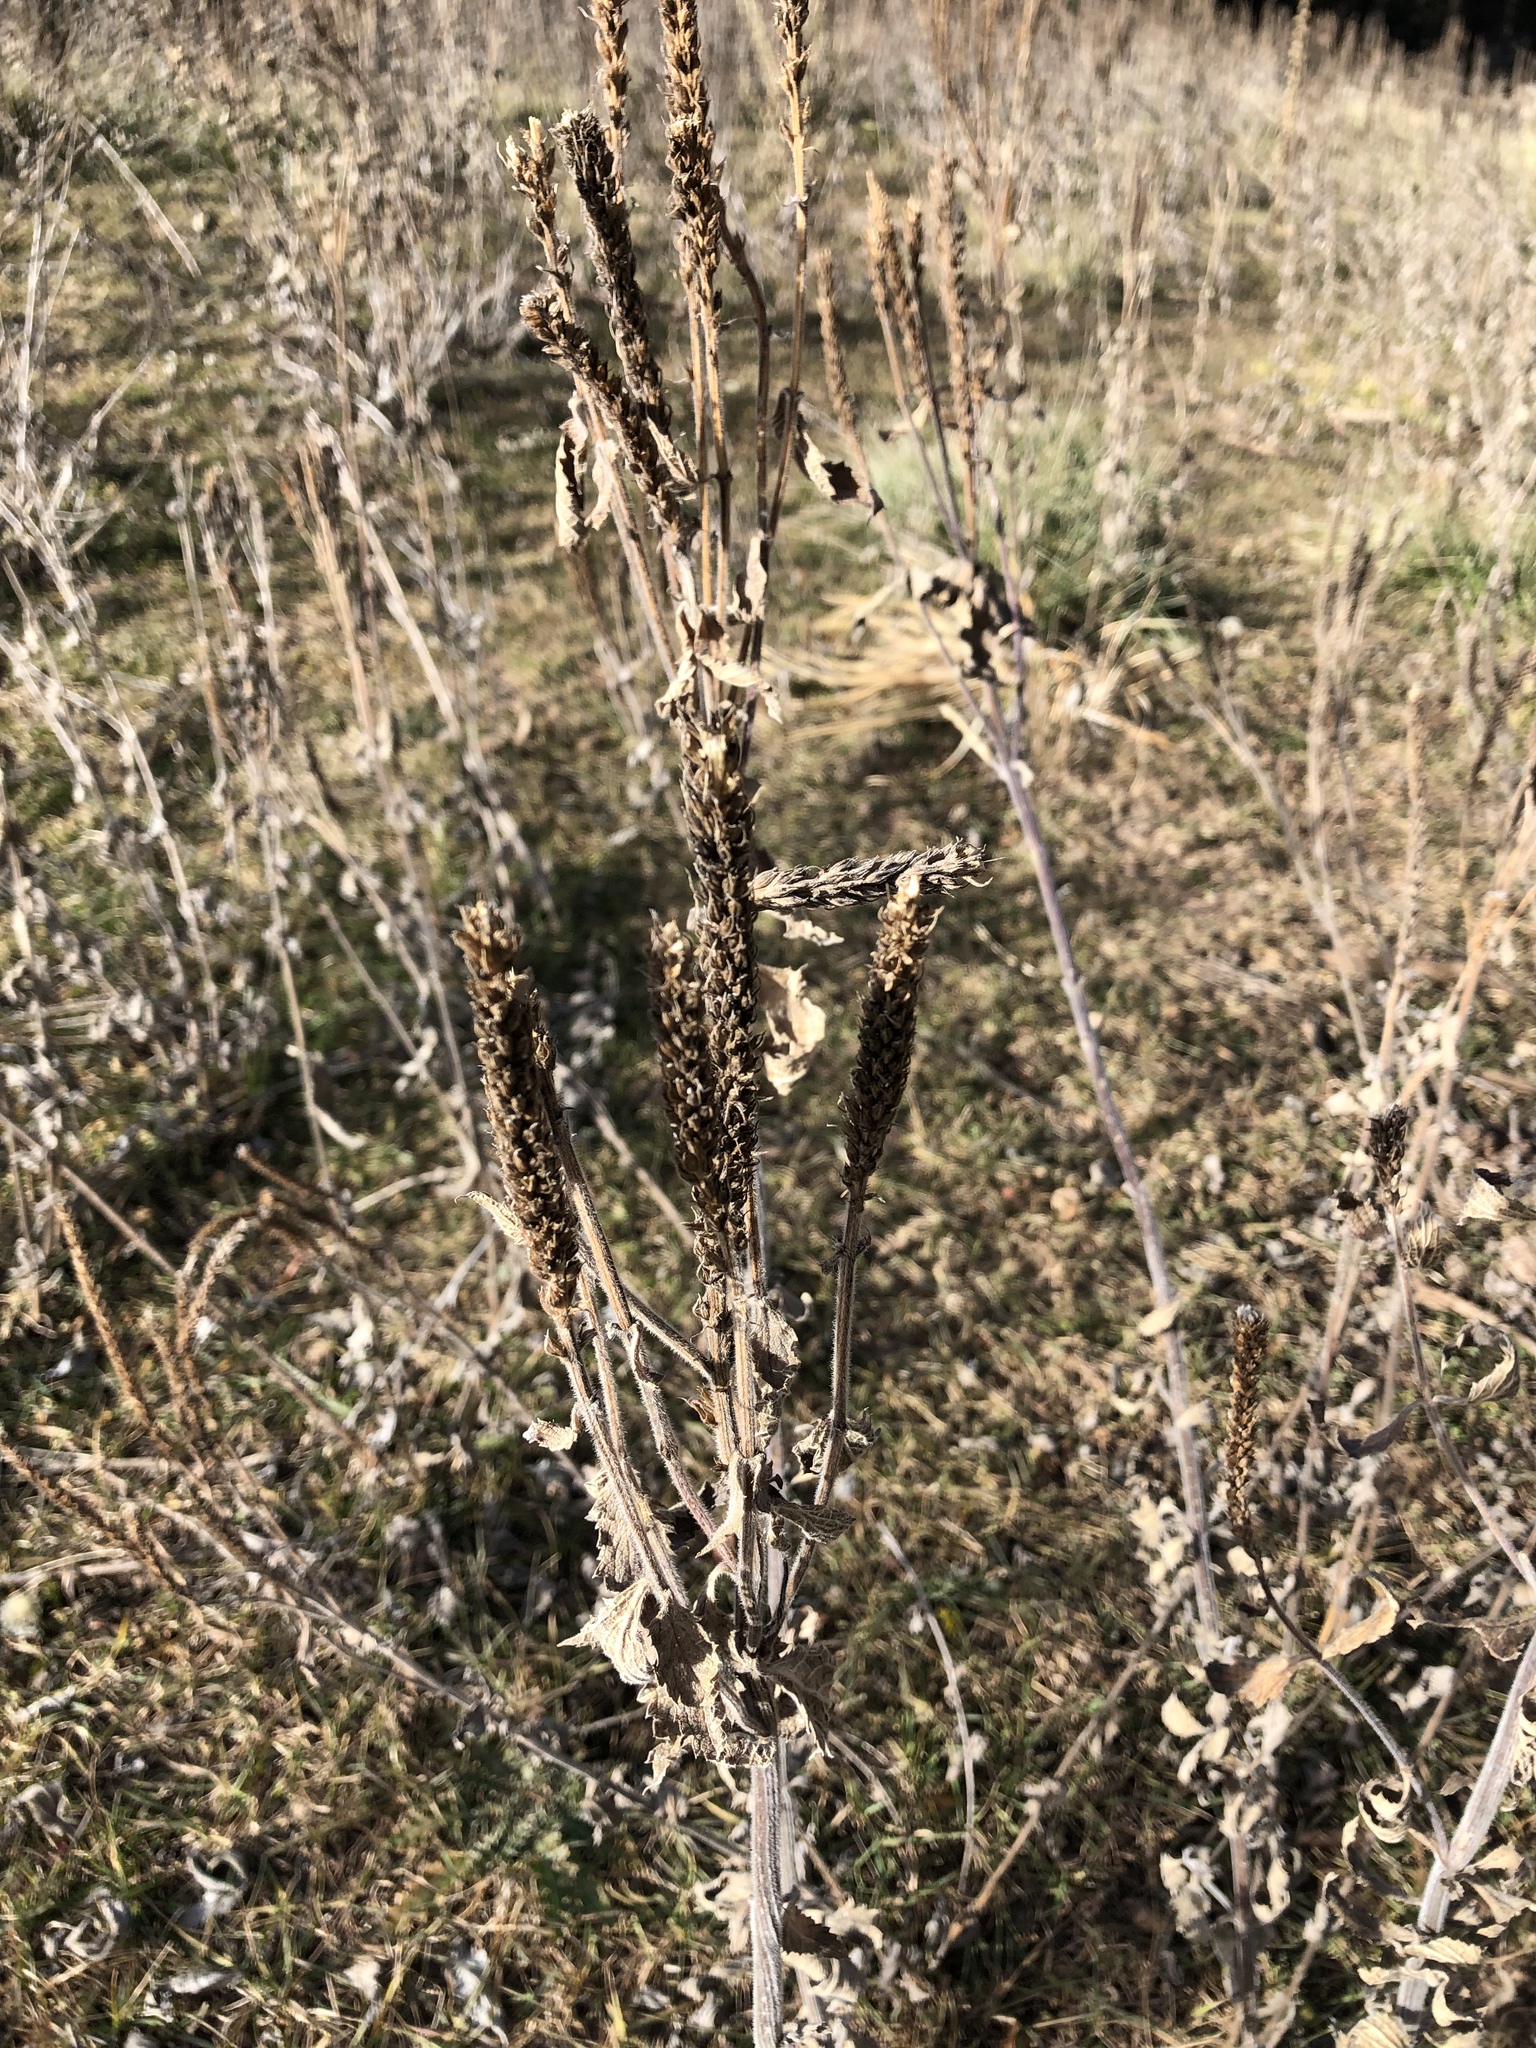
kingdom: Plantae
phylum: Tracheophyta
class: Magnoliopsida
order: Lamiales
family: Verbenaceae
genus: Verbena
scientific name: Verbena macdougalii
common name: New mexico vervain
